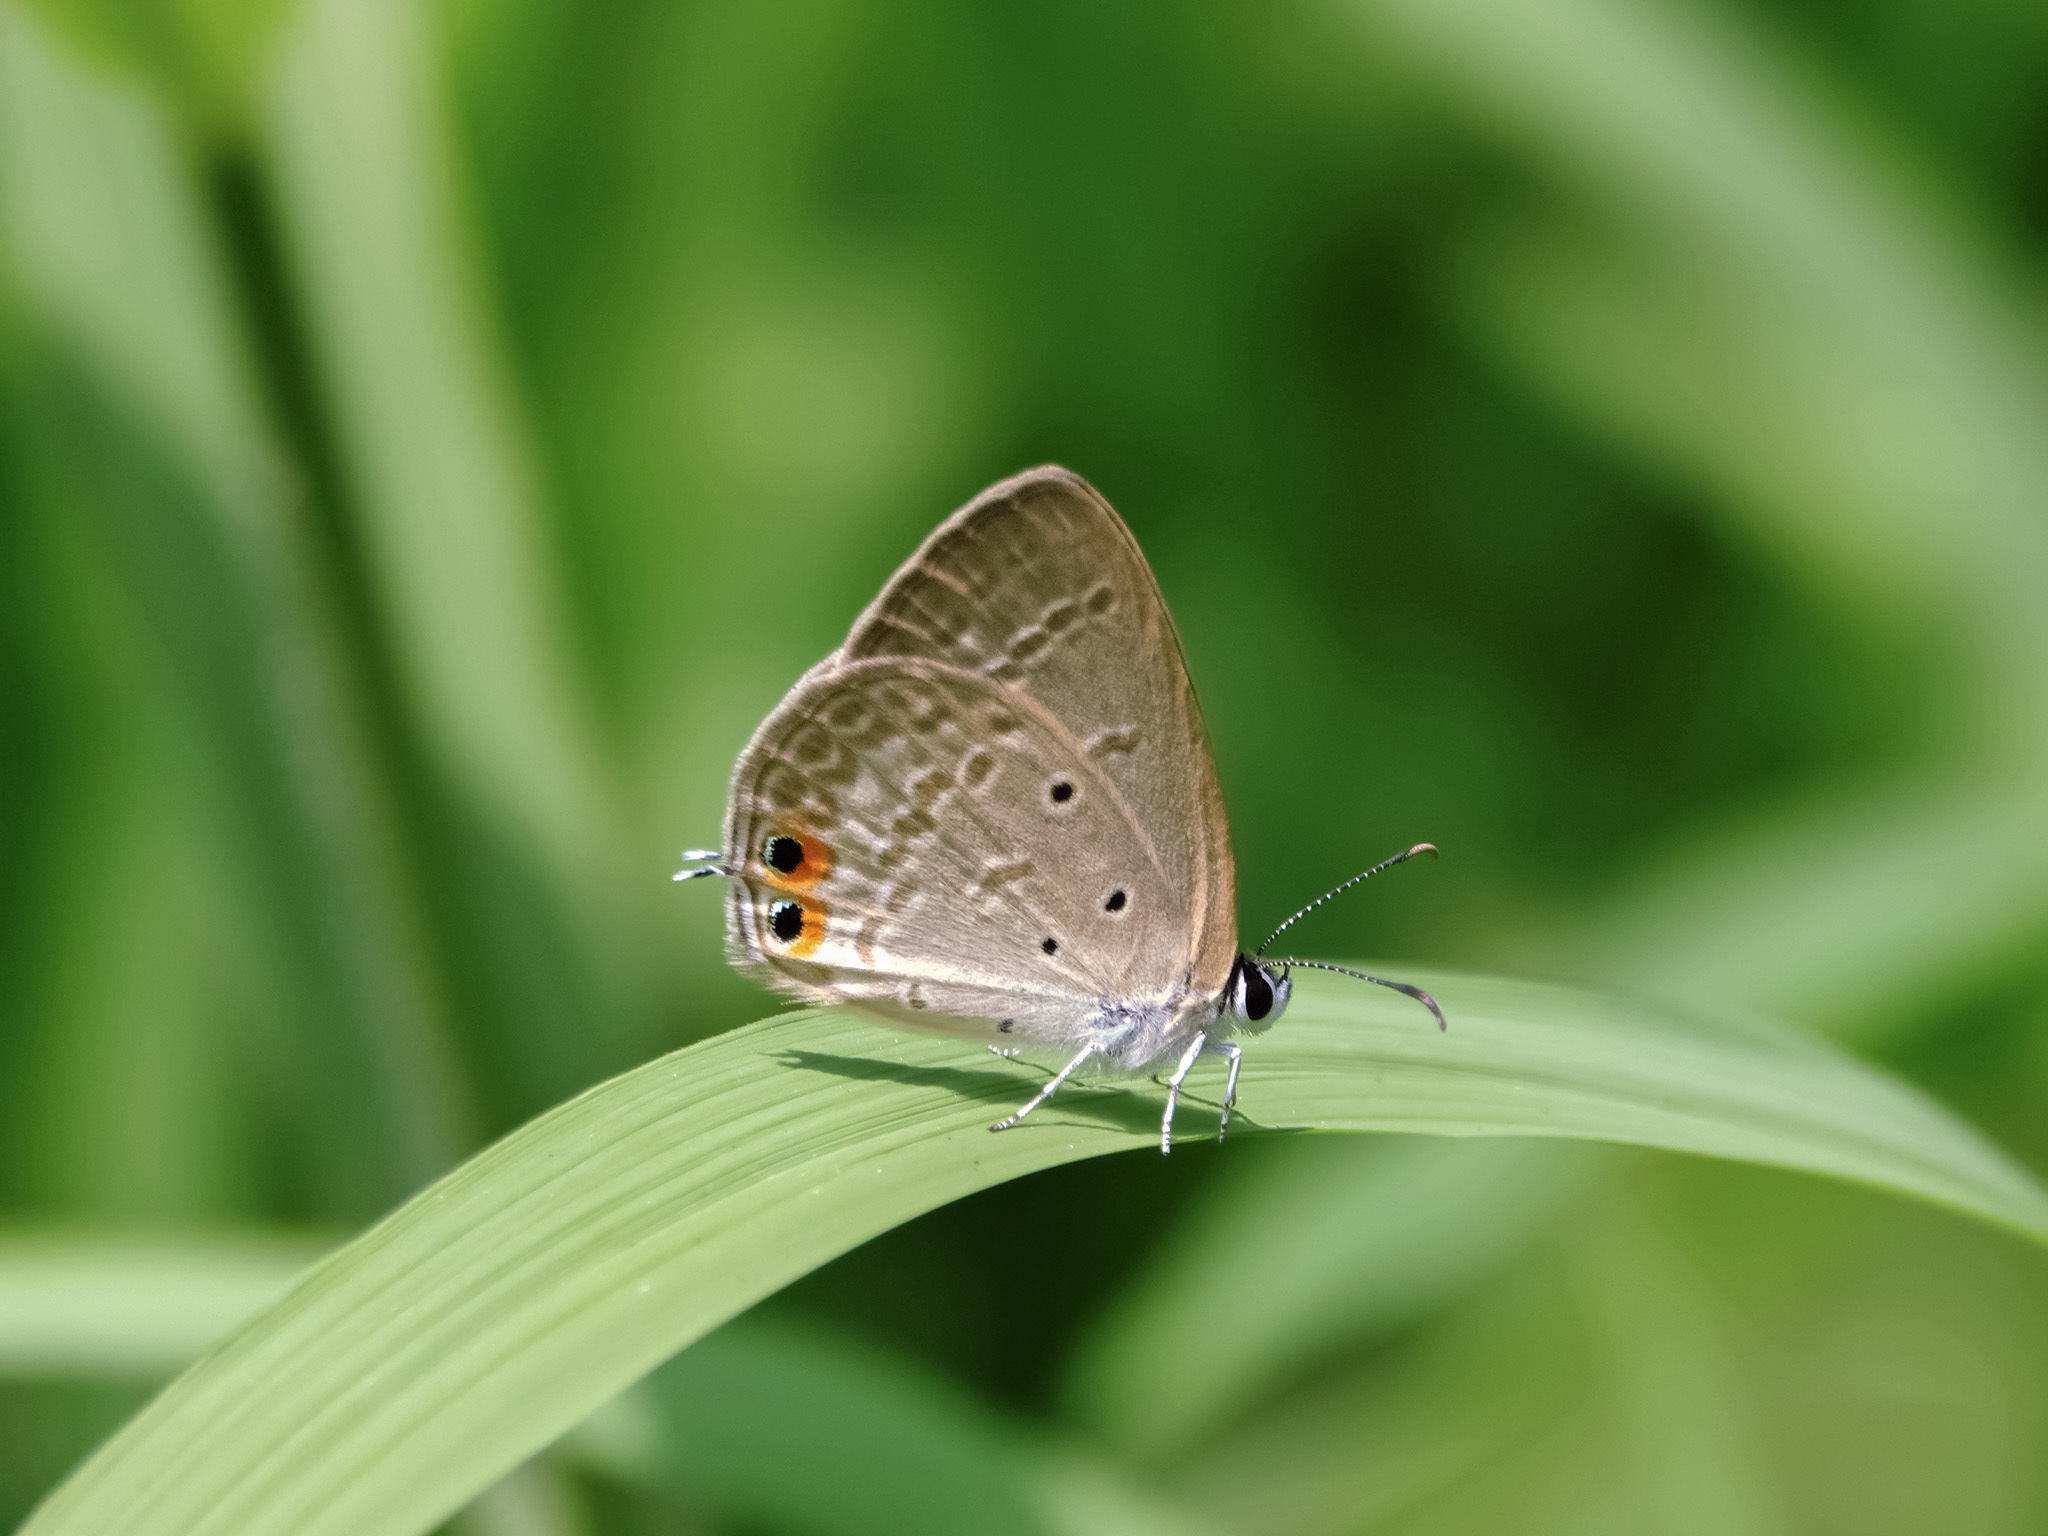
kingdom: Animalia
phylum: Arthropoda
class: Insecta
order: Lepidoptera
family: Lycaenidae
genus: Euchrysops
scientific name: Euchrysops cnejus
